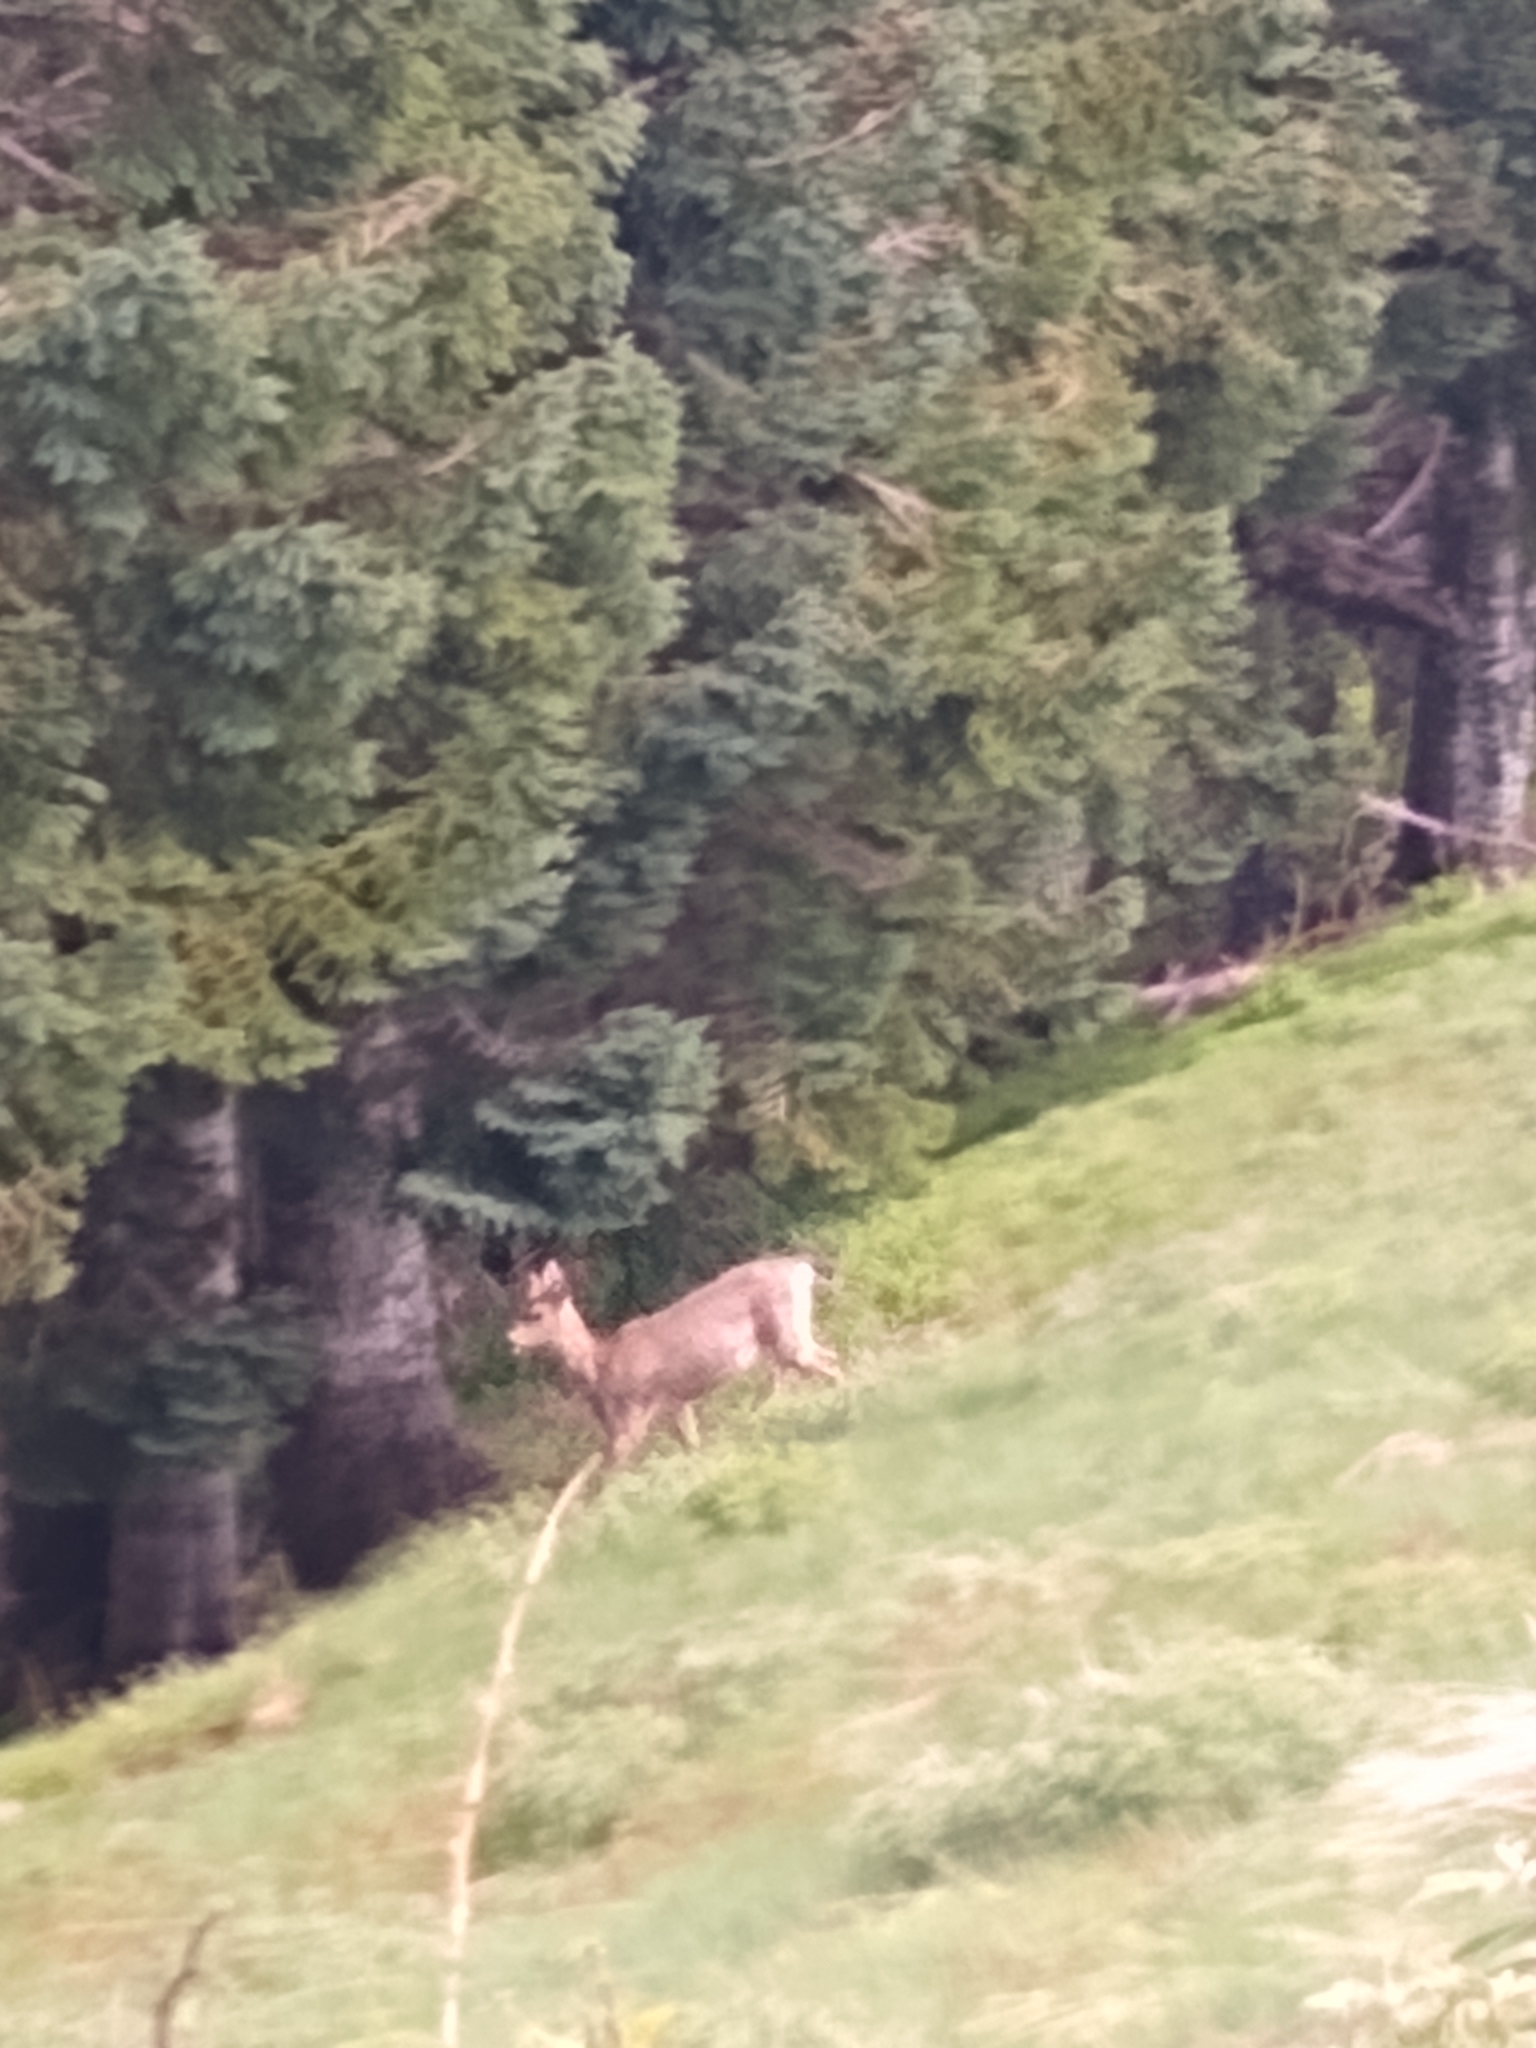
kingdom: Animalia
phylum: Chordata
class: Mammalia
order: Artiodactyla
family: Cervidae
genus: Odocoileus
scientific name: Odocoileus hemionus
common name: Mule deer
